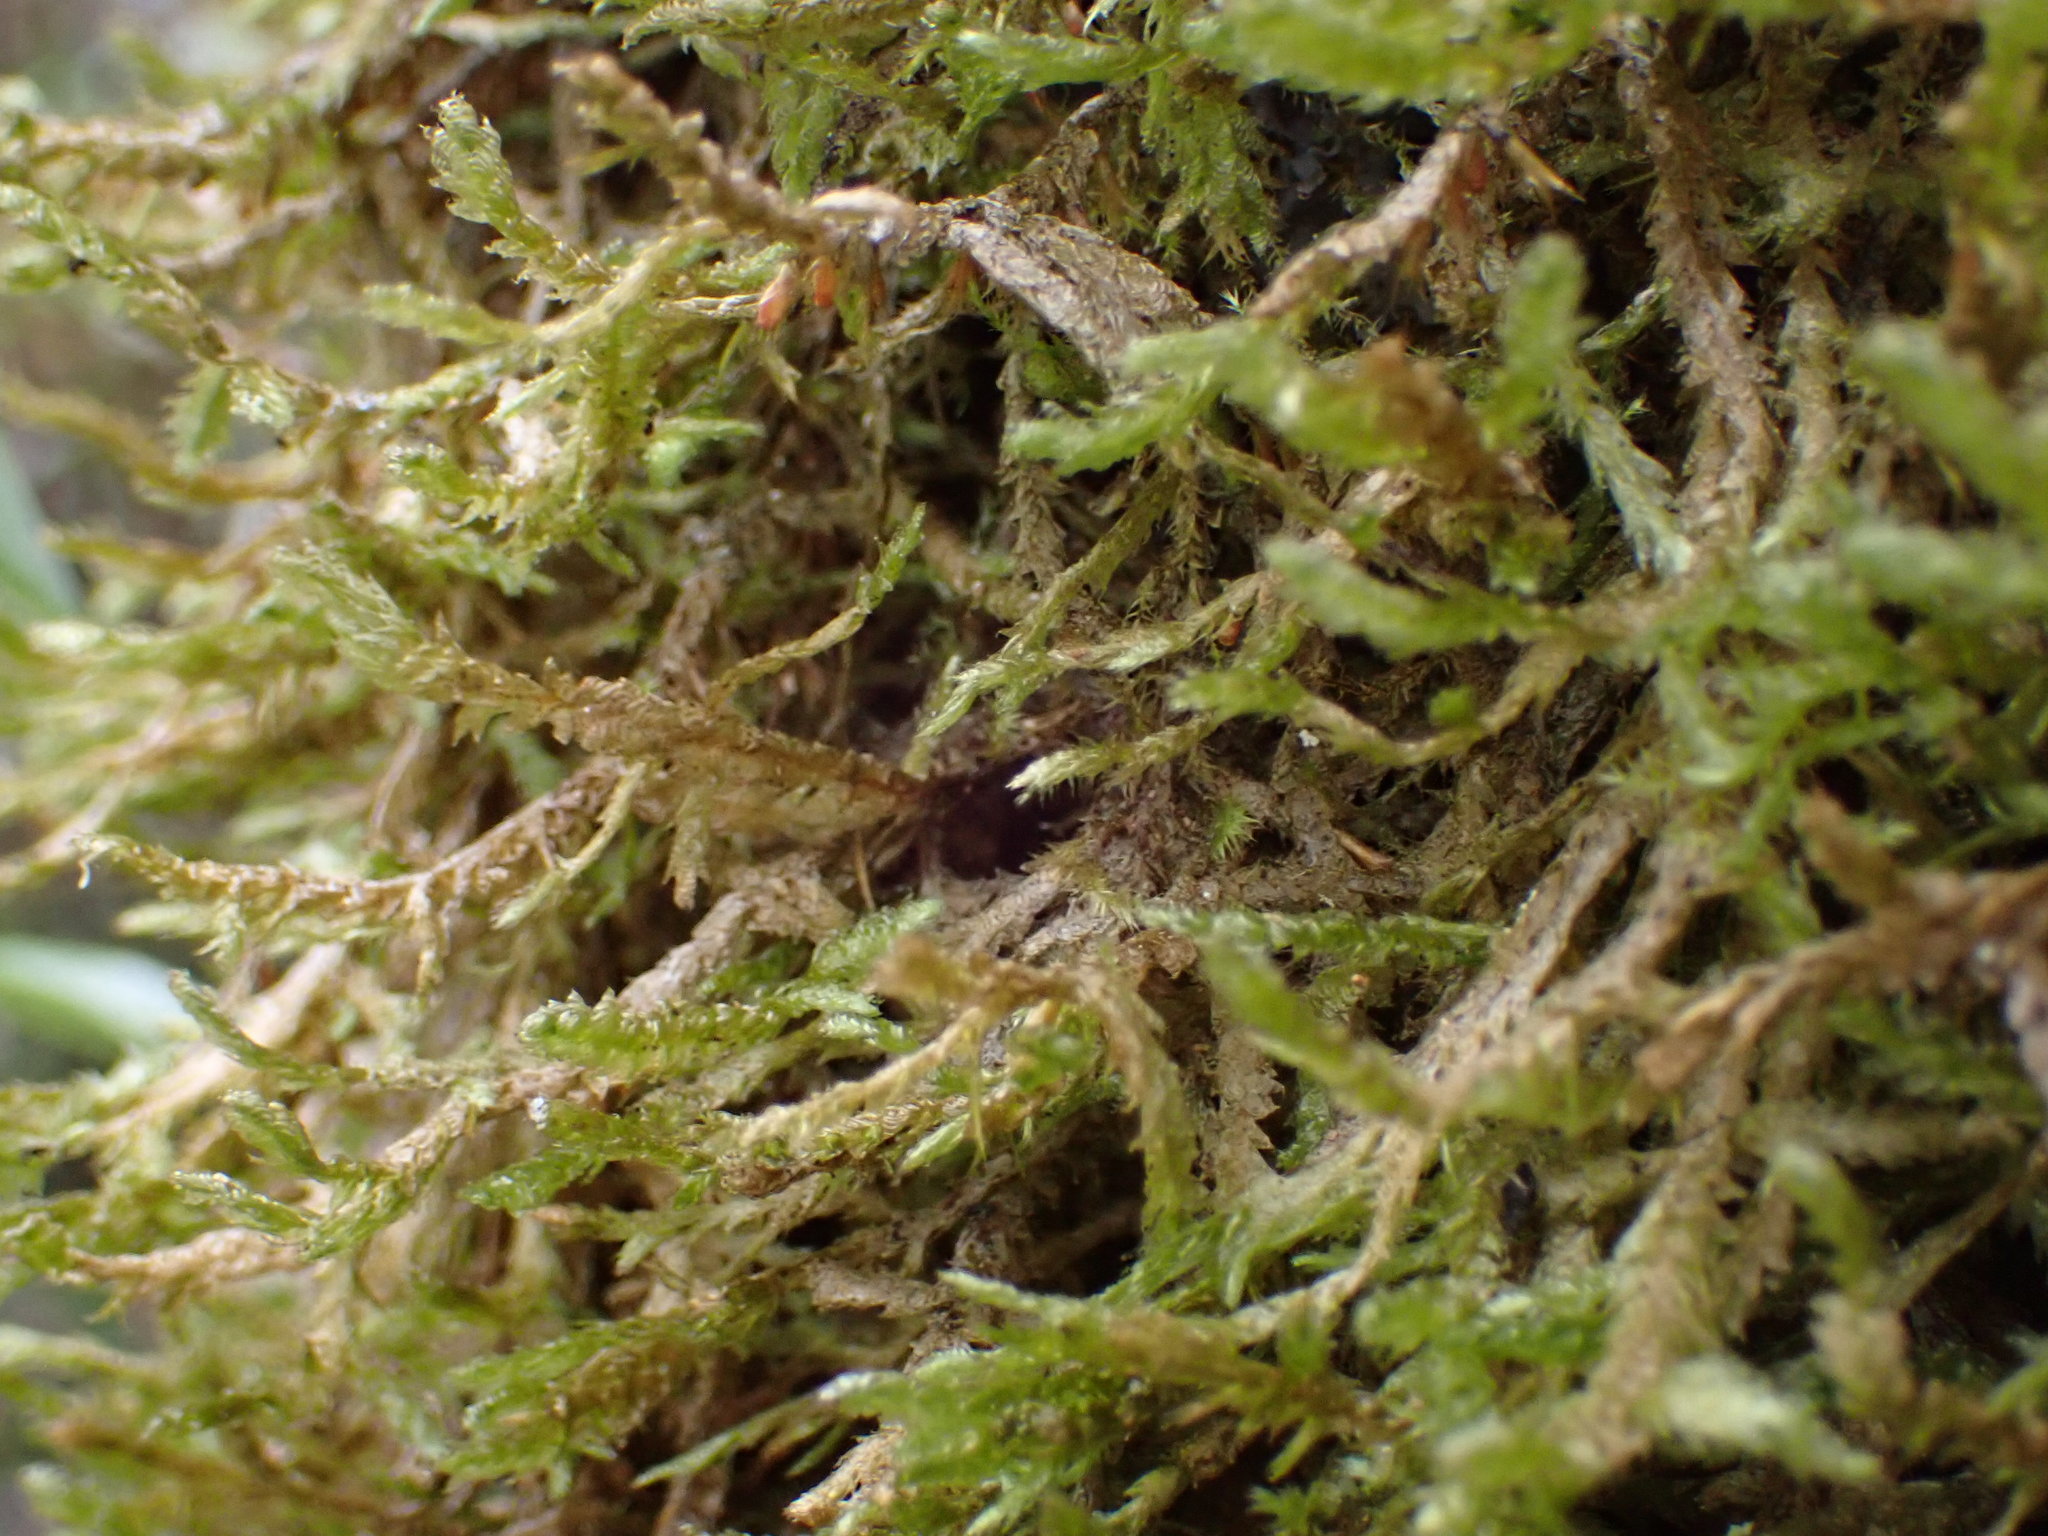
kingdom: Plantae
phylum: Bryophyta
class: Bryopsida
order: Hypnales
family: Neckeraceae
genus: Alleniella
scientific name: Alleniella hymenodonta
